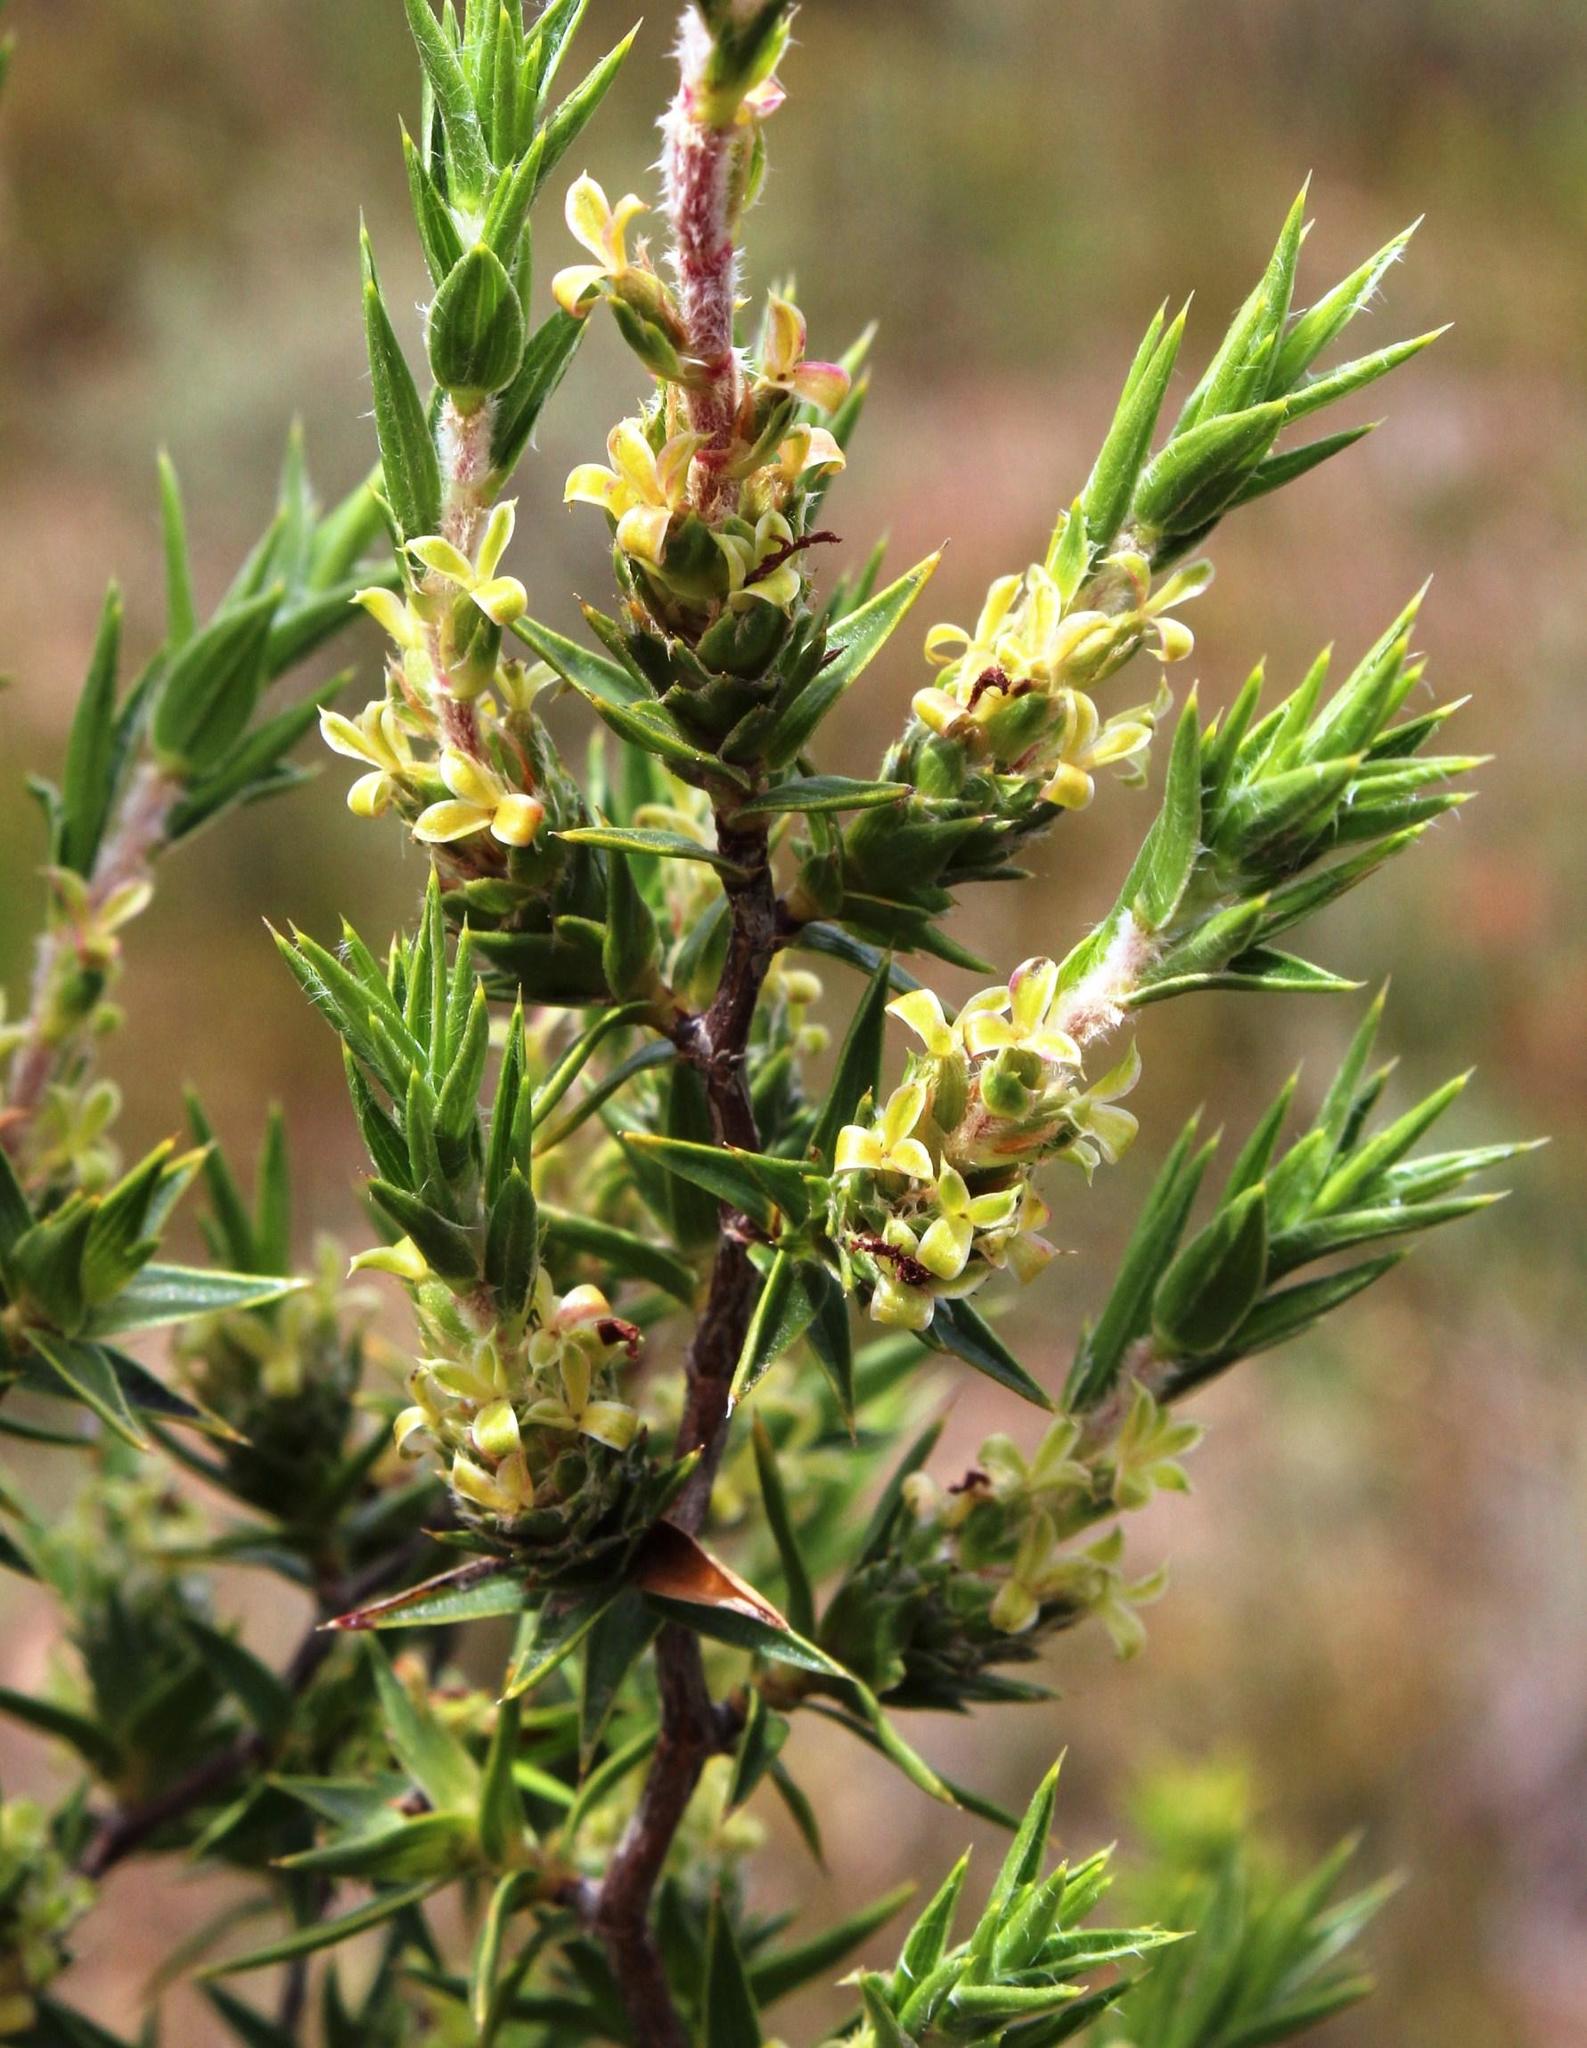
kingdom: Plantae
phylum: Tracheophyta
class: Magnoliopsida
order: Rosales
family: Rosaceae
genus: Cliffortia
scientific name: Cliffortia ruscifolia
